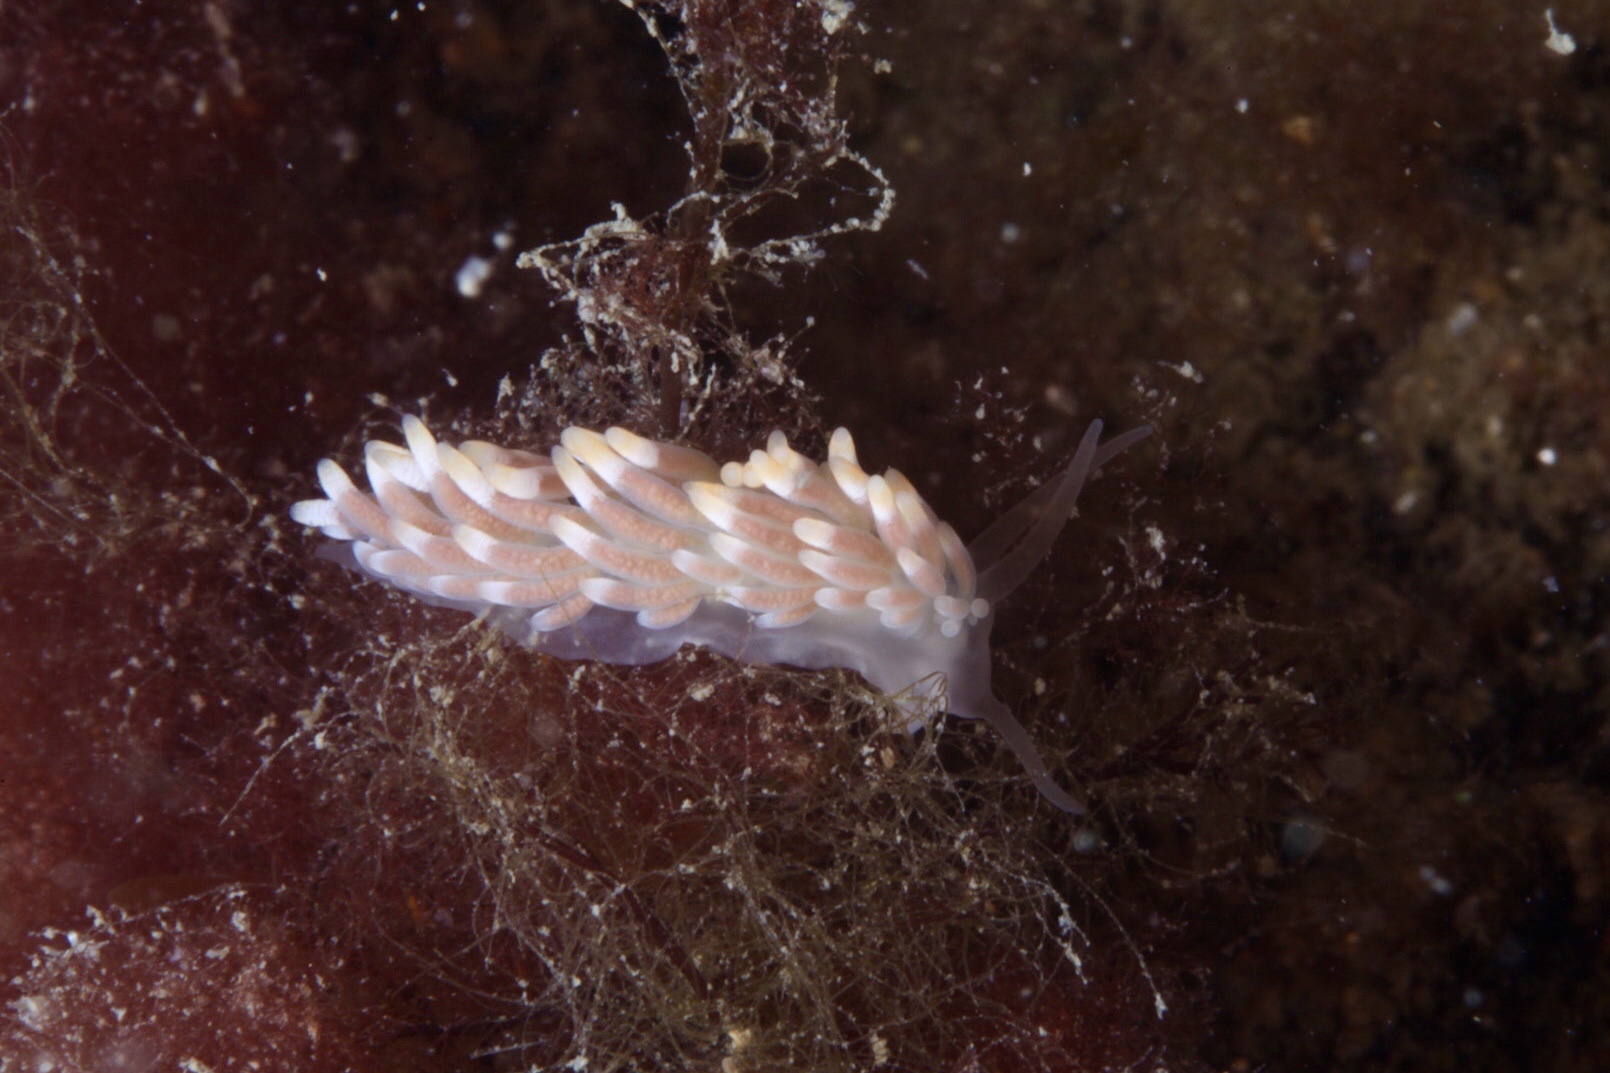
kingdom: Animalia
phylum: Mollusca
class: Gastropoda
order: Nudibranchia
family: Trinchesiidae
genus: Catriona
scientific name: Catriona aurantia
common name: Corange-tip cuthona
